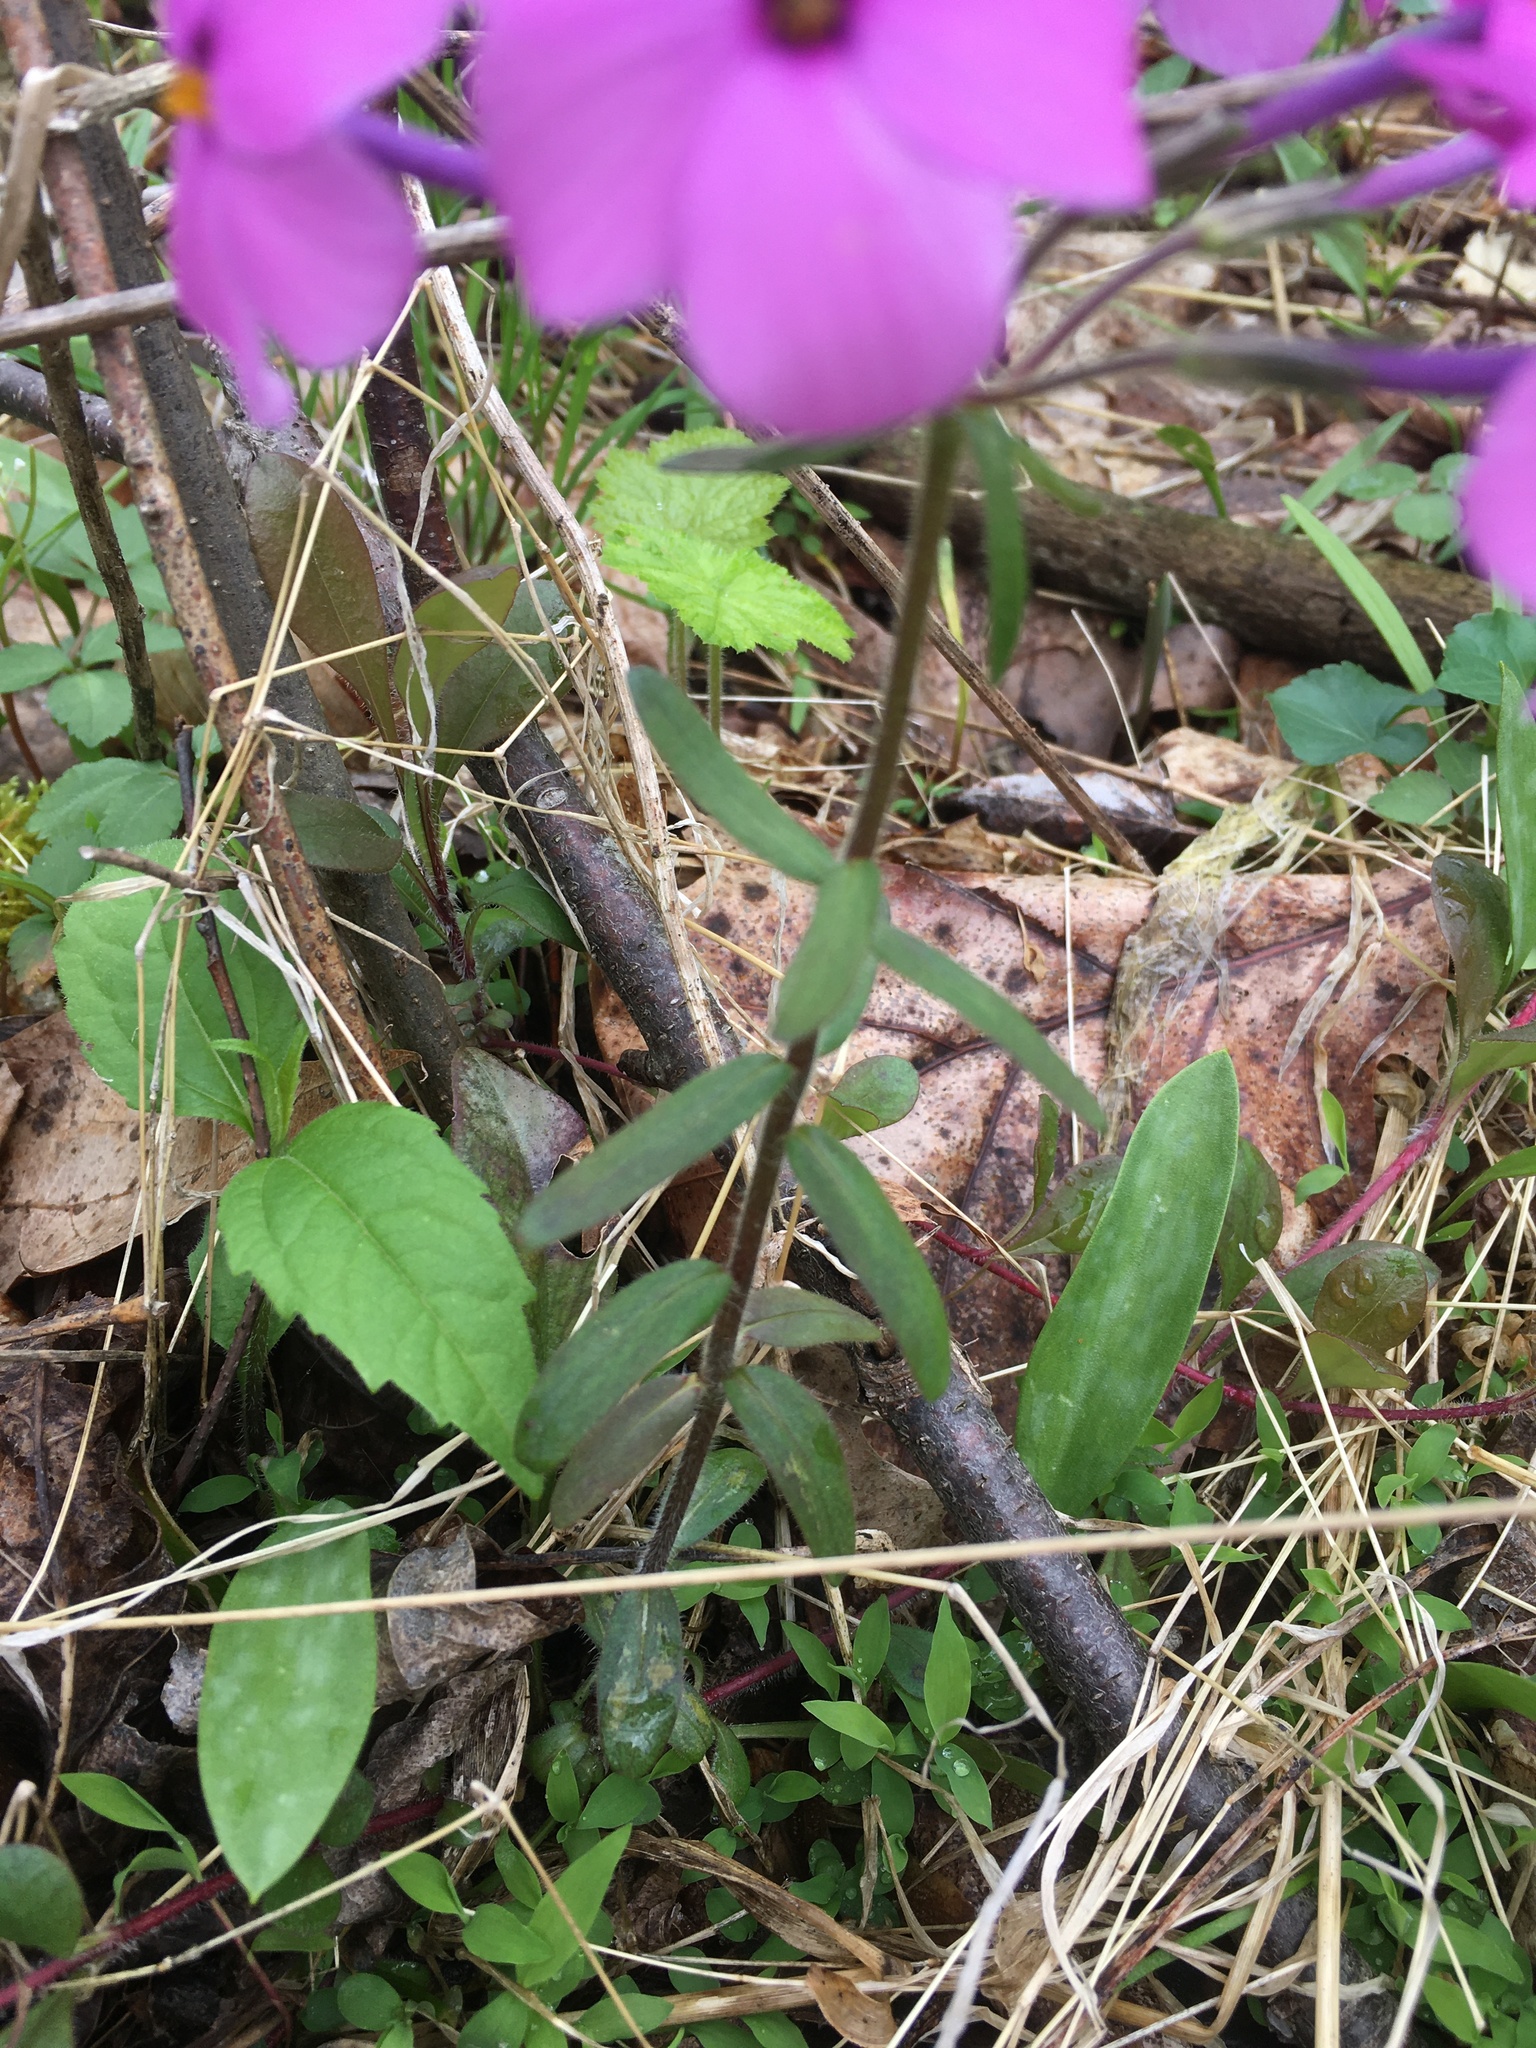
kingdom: Plantae
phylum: Tracheophyta
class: Magnoliopsida
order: Ericales
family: Polemoniaceae
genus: Phlox
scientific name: Phlox stolonifera
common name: Creeping phlox
